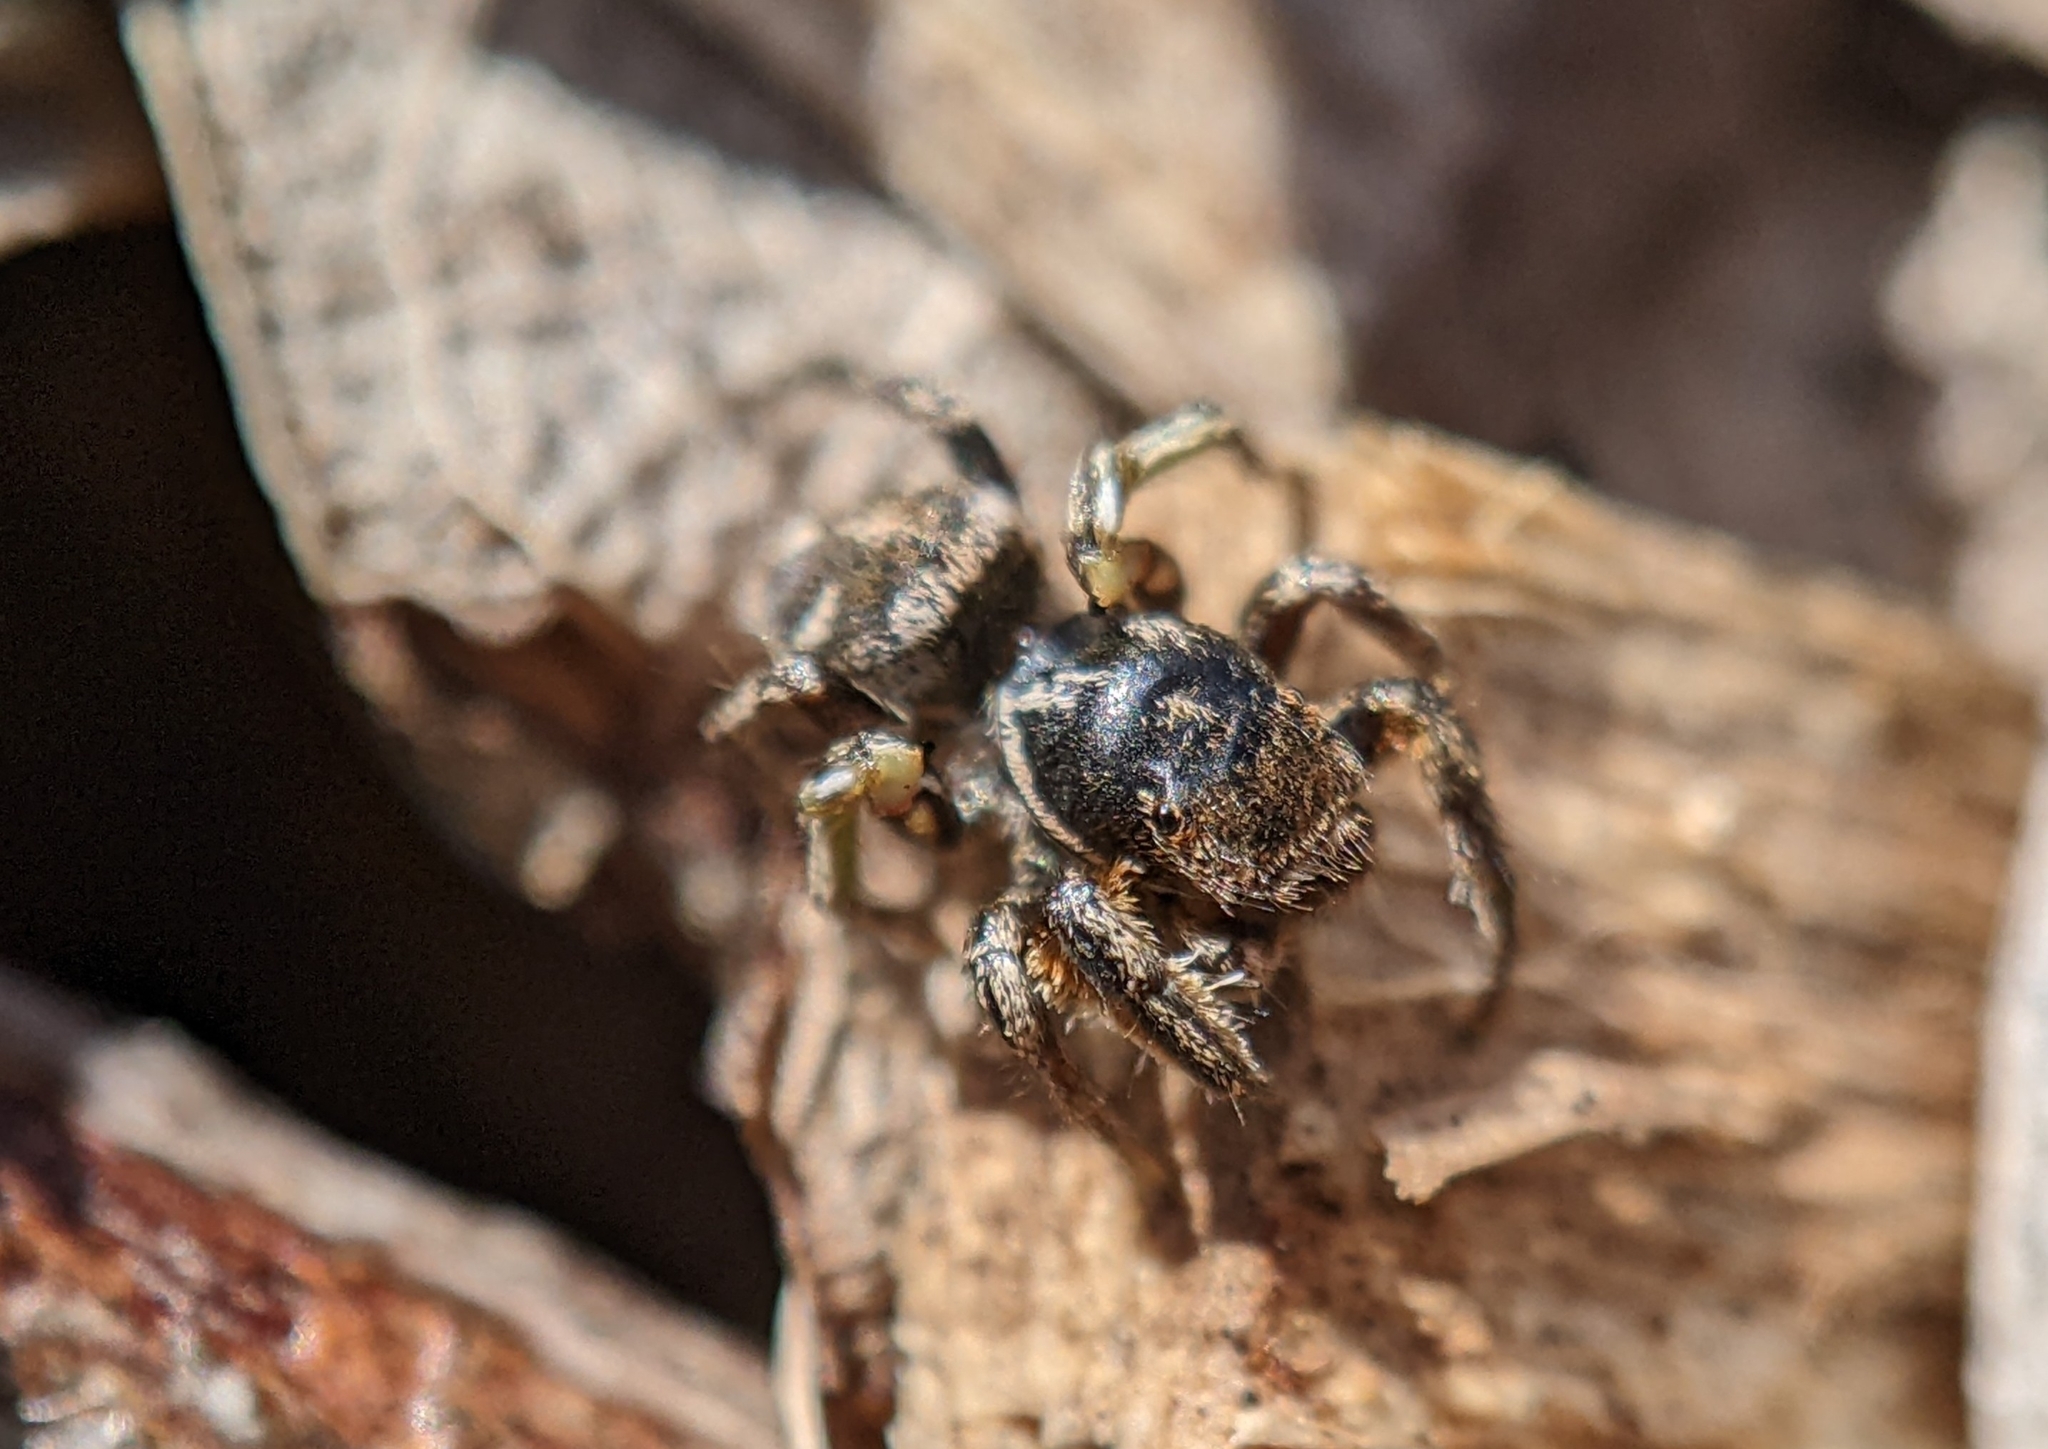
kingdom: Animalia
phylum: Arthropoda
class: Arachnida
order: Araneae
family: Salticidae
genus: Habronattus
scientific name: Habronattus klauseri
